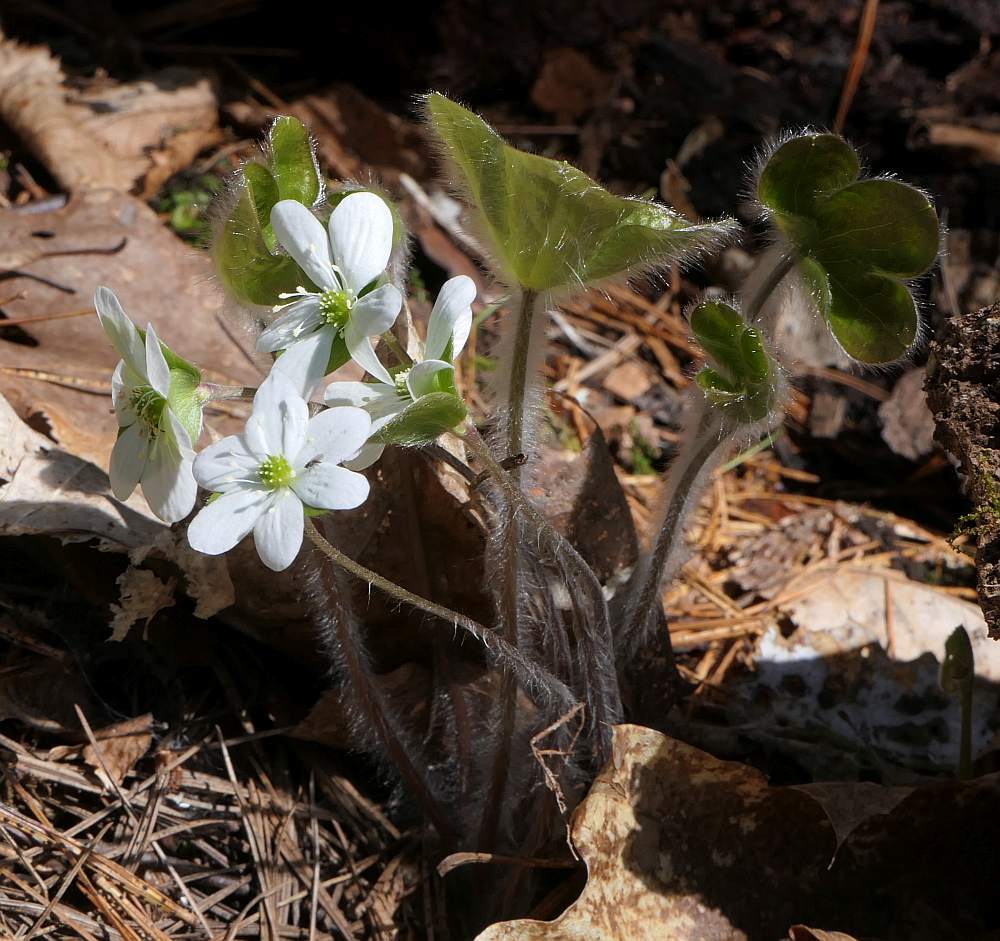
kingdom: Plantae
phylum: Tracheophyta
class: Magnoliopsida
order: Ranunculales
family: Ranunculaceae
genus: Hepatica
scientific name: Hepatica americana
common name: American hepatica
